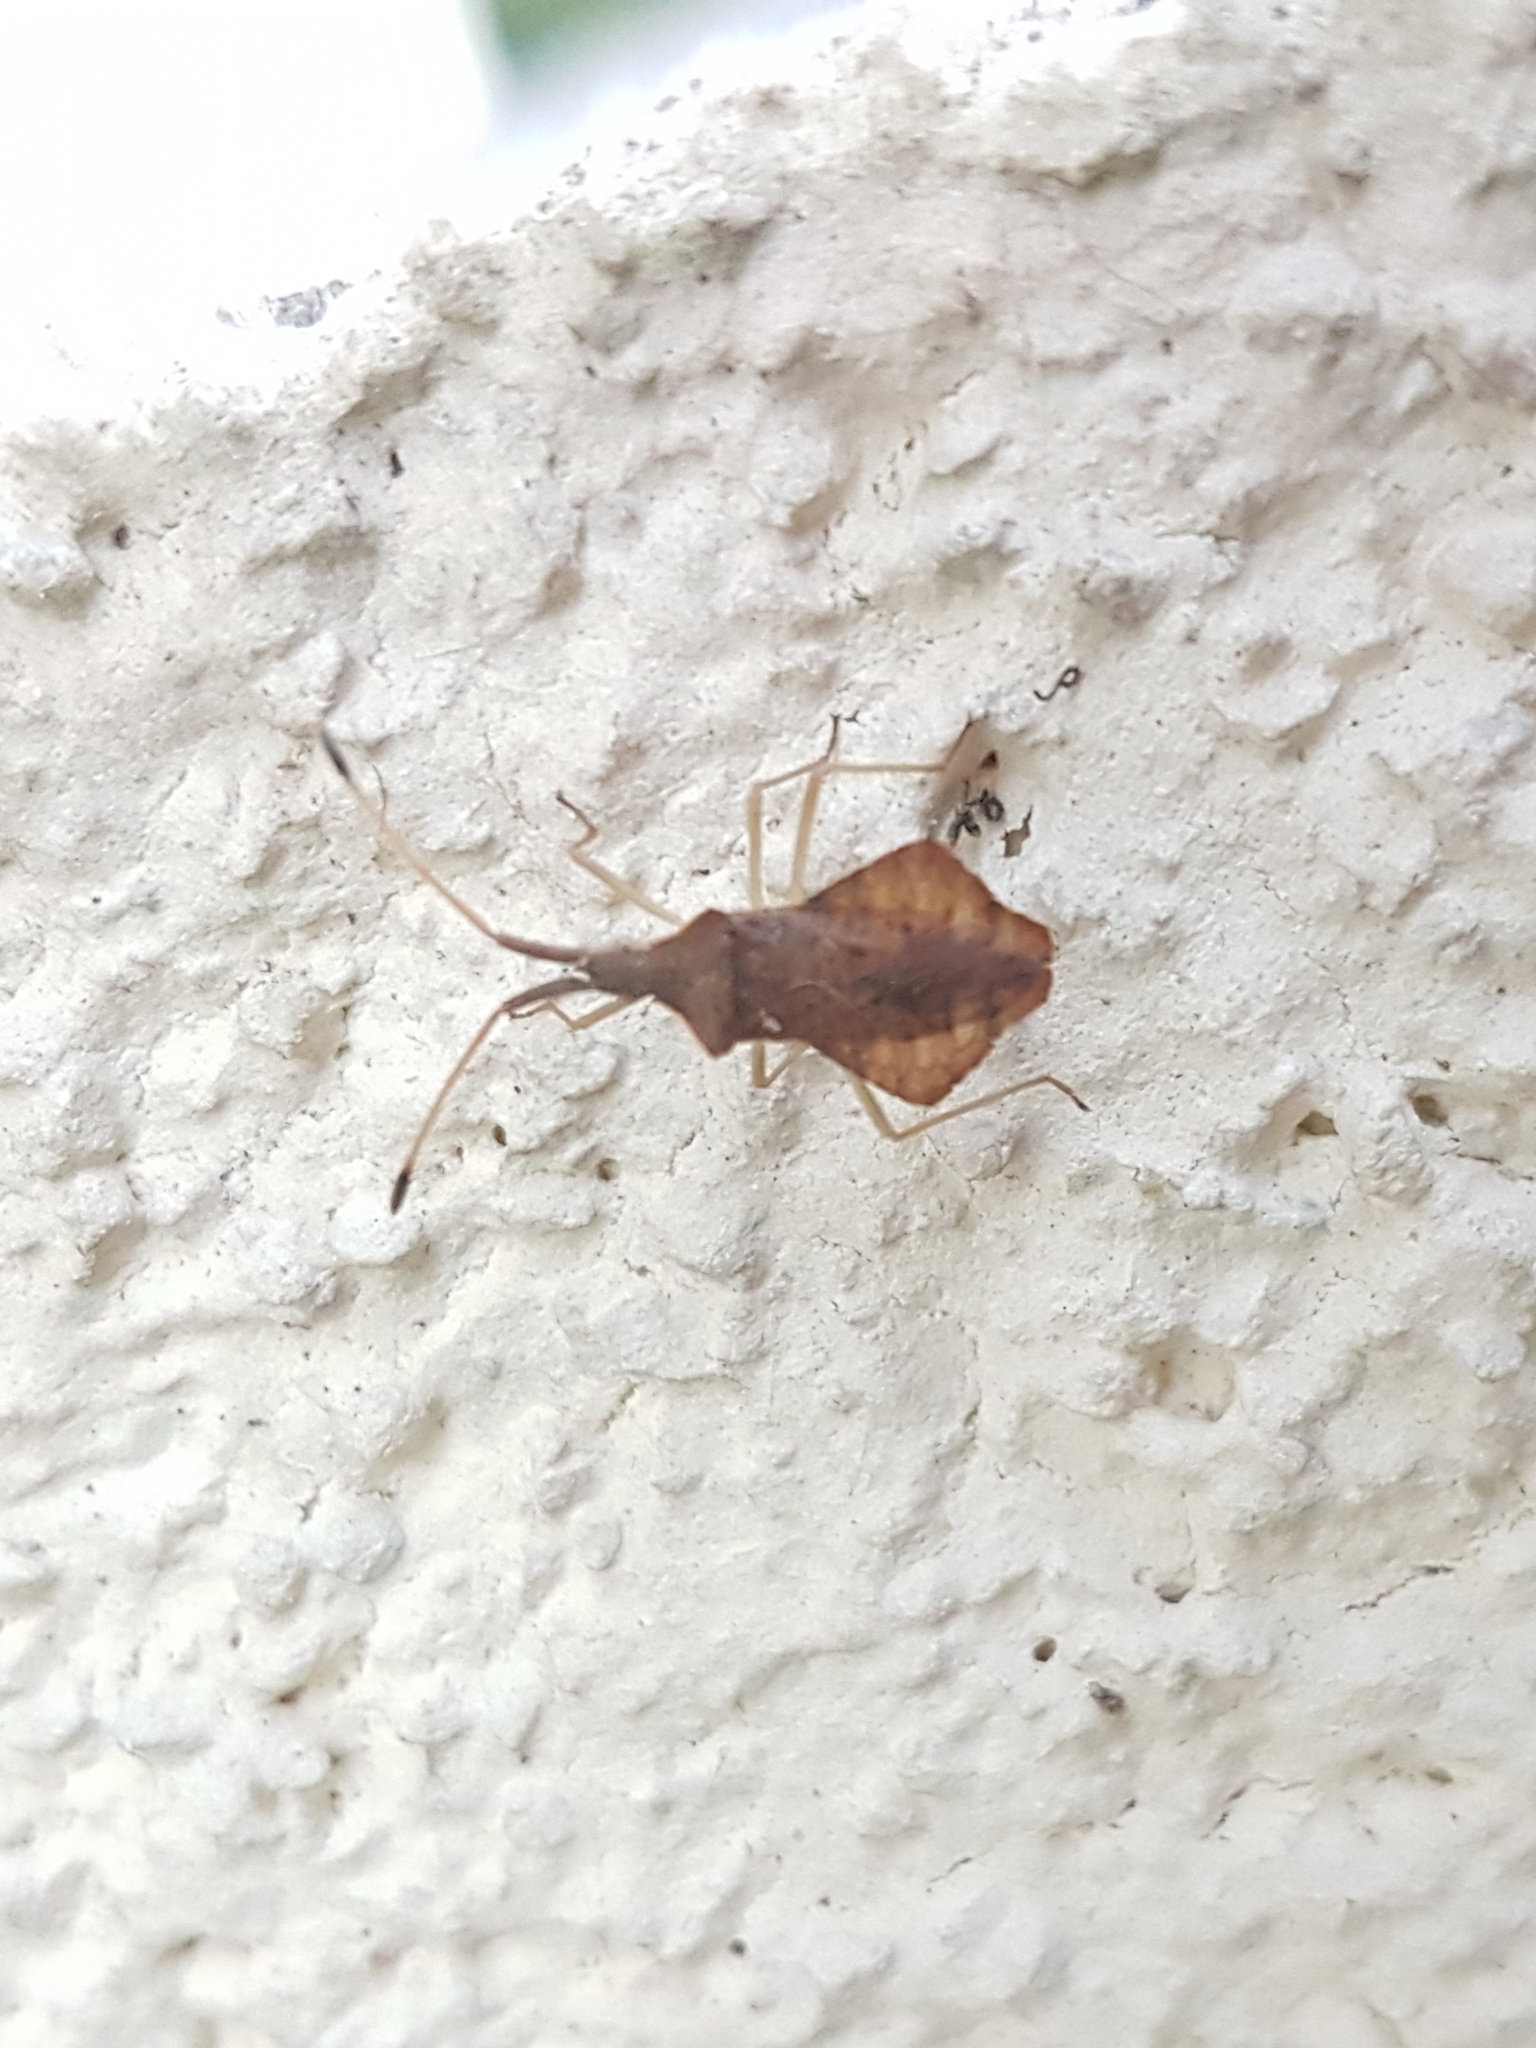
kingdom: Animalia
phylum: Arthropoda
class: Insecta
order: Hemiptera
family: Coreidae
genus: Syromastus
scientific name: Syromastus rhombeus
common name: Rhombic leatherbug
